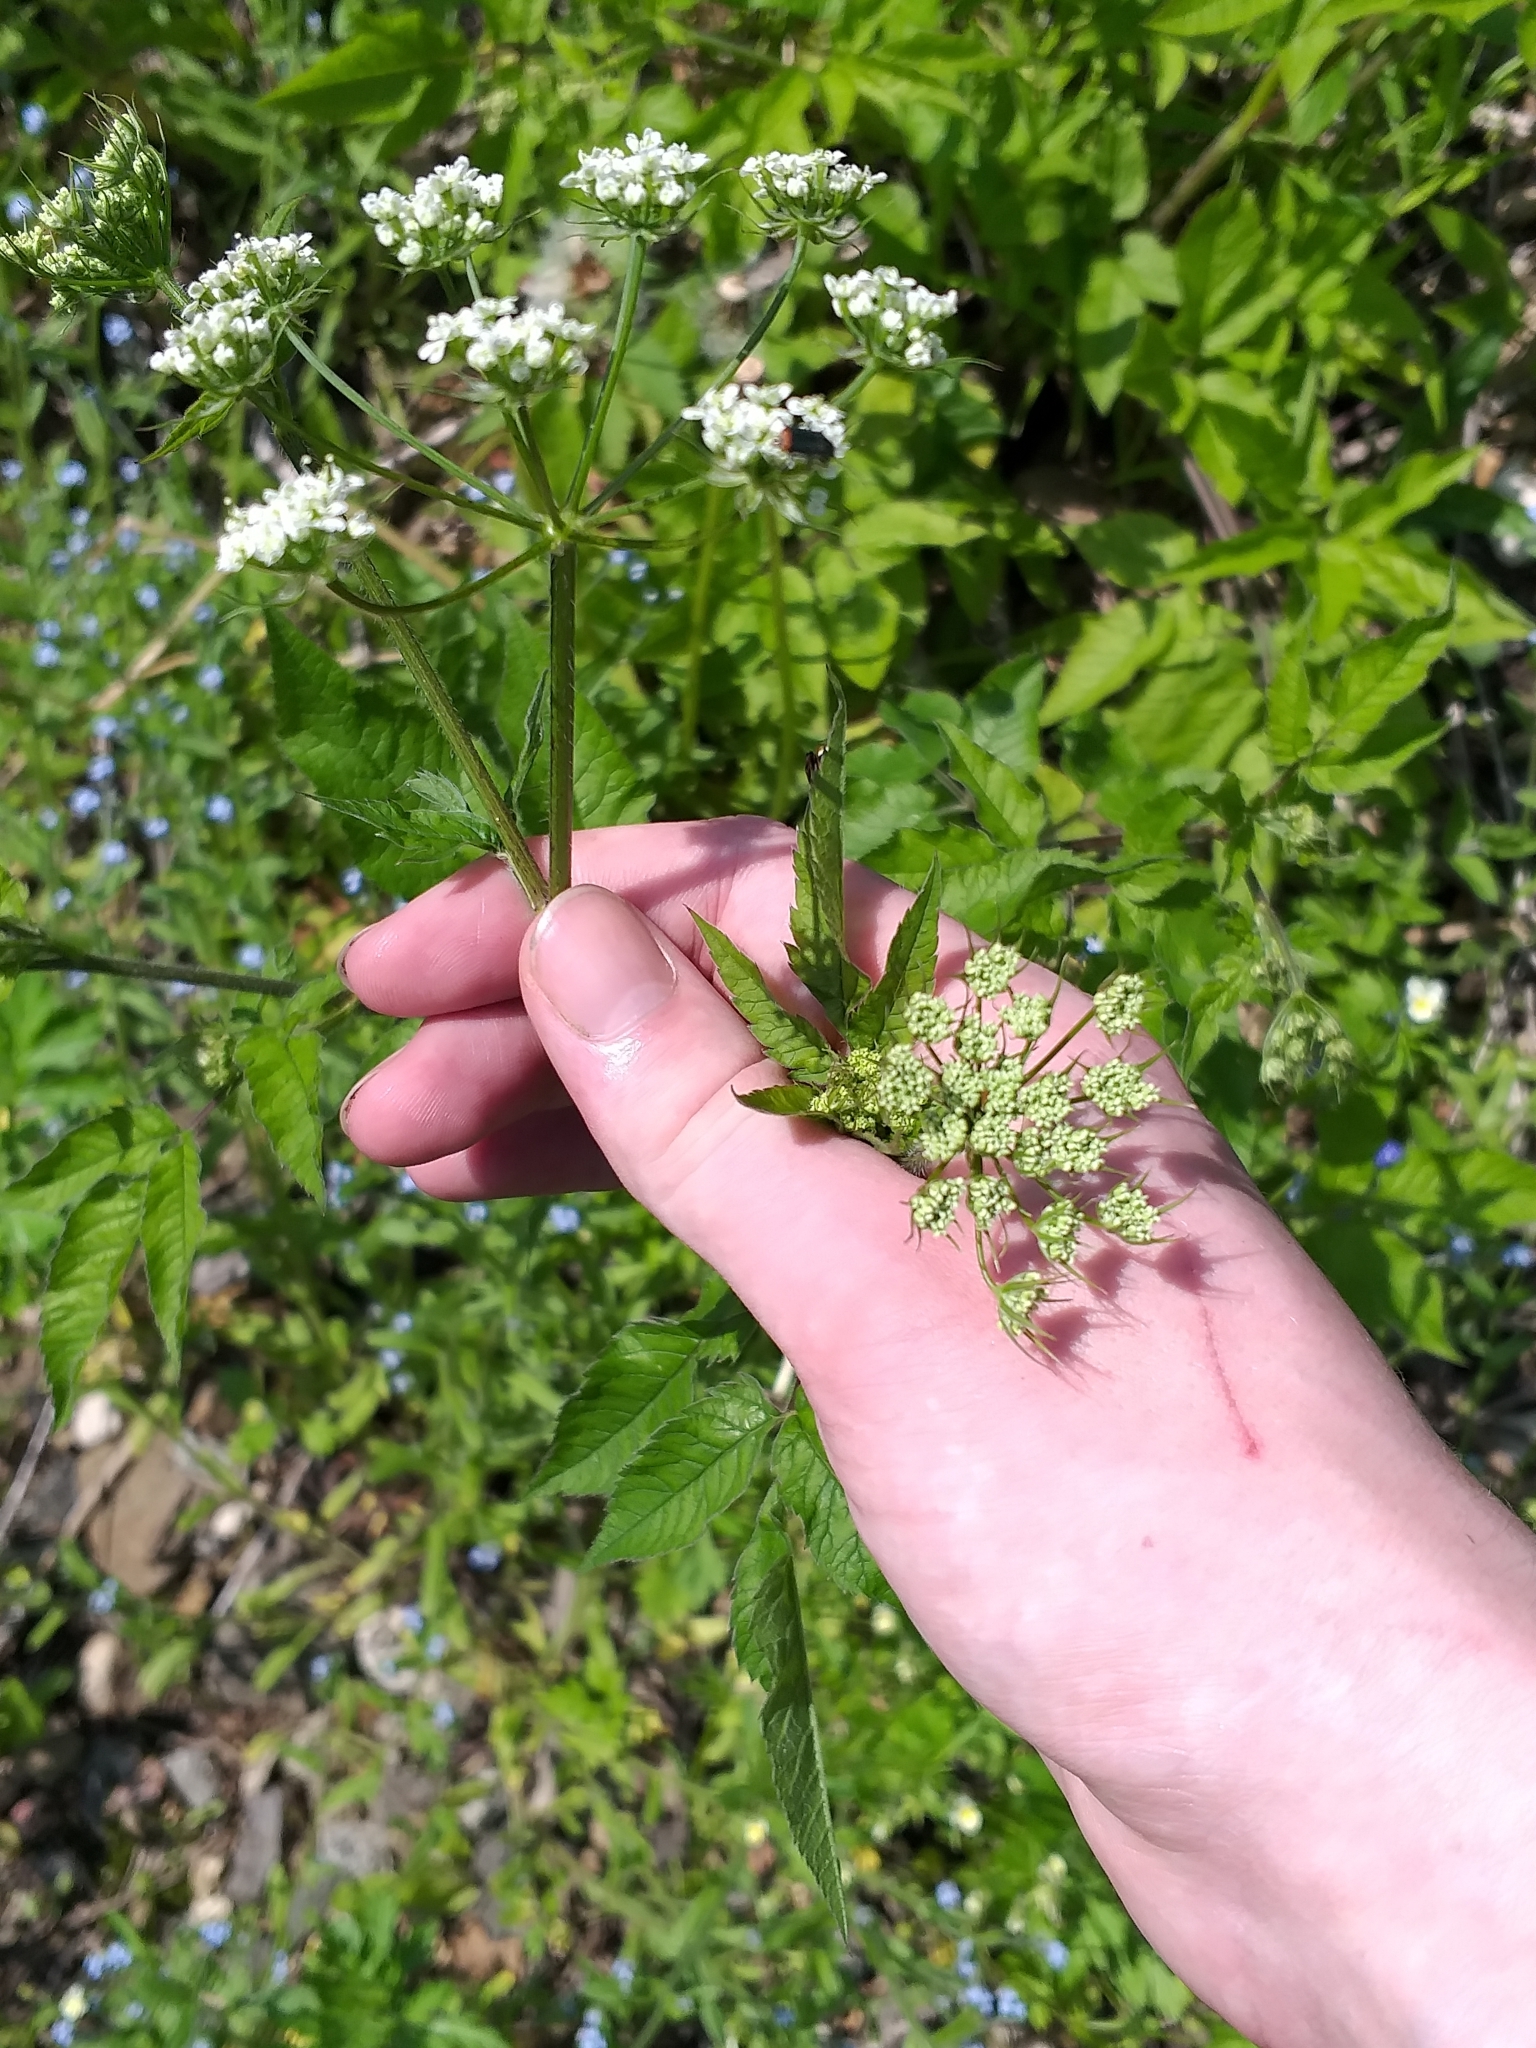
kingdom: Plantae
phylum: Tracheophyta
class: Magnoliopsida
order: Apiales
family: Apiaceae
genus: Chaerophyllum
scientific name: Chaerophyllum aromaticum
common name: Broadleaf chervil
